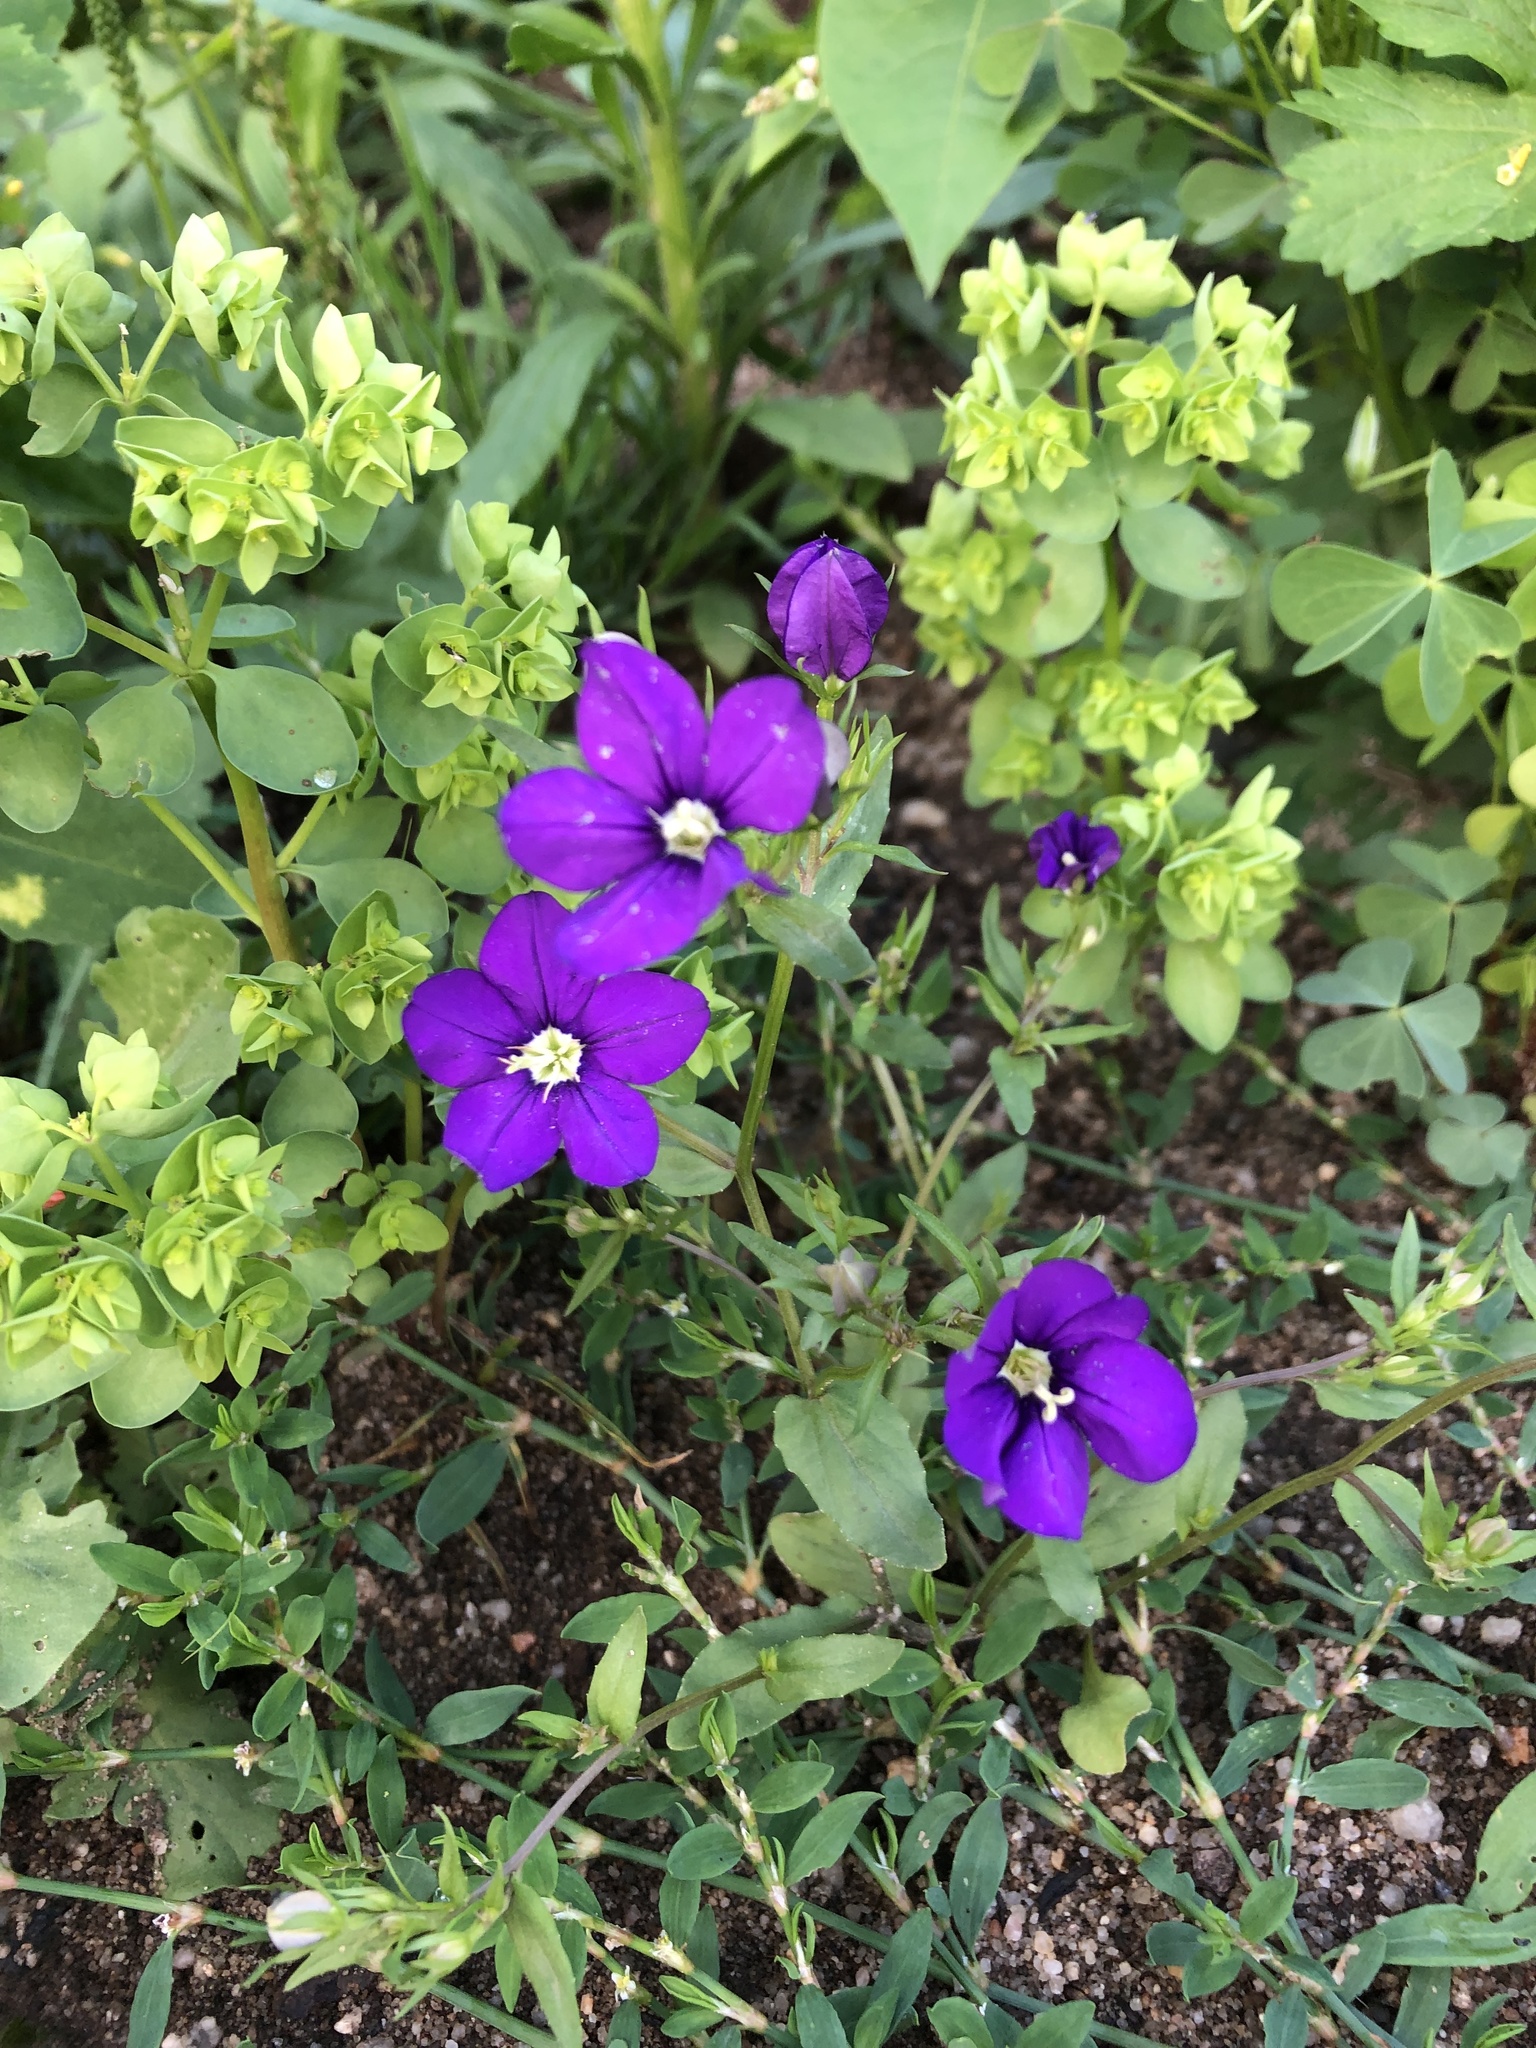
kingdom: Plantae
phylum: Tracheophyta
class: Magnoliopsida
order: Asterales
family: Campanulaceae
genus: Legousia
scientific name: Legousia speculum-veneris
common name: Large venus's-looking-glass
